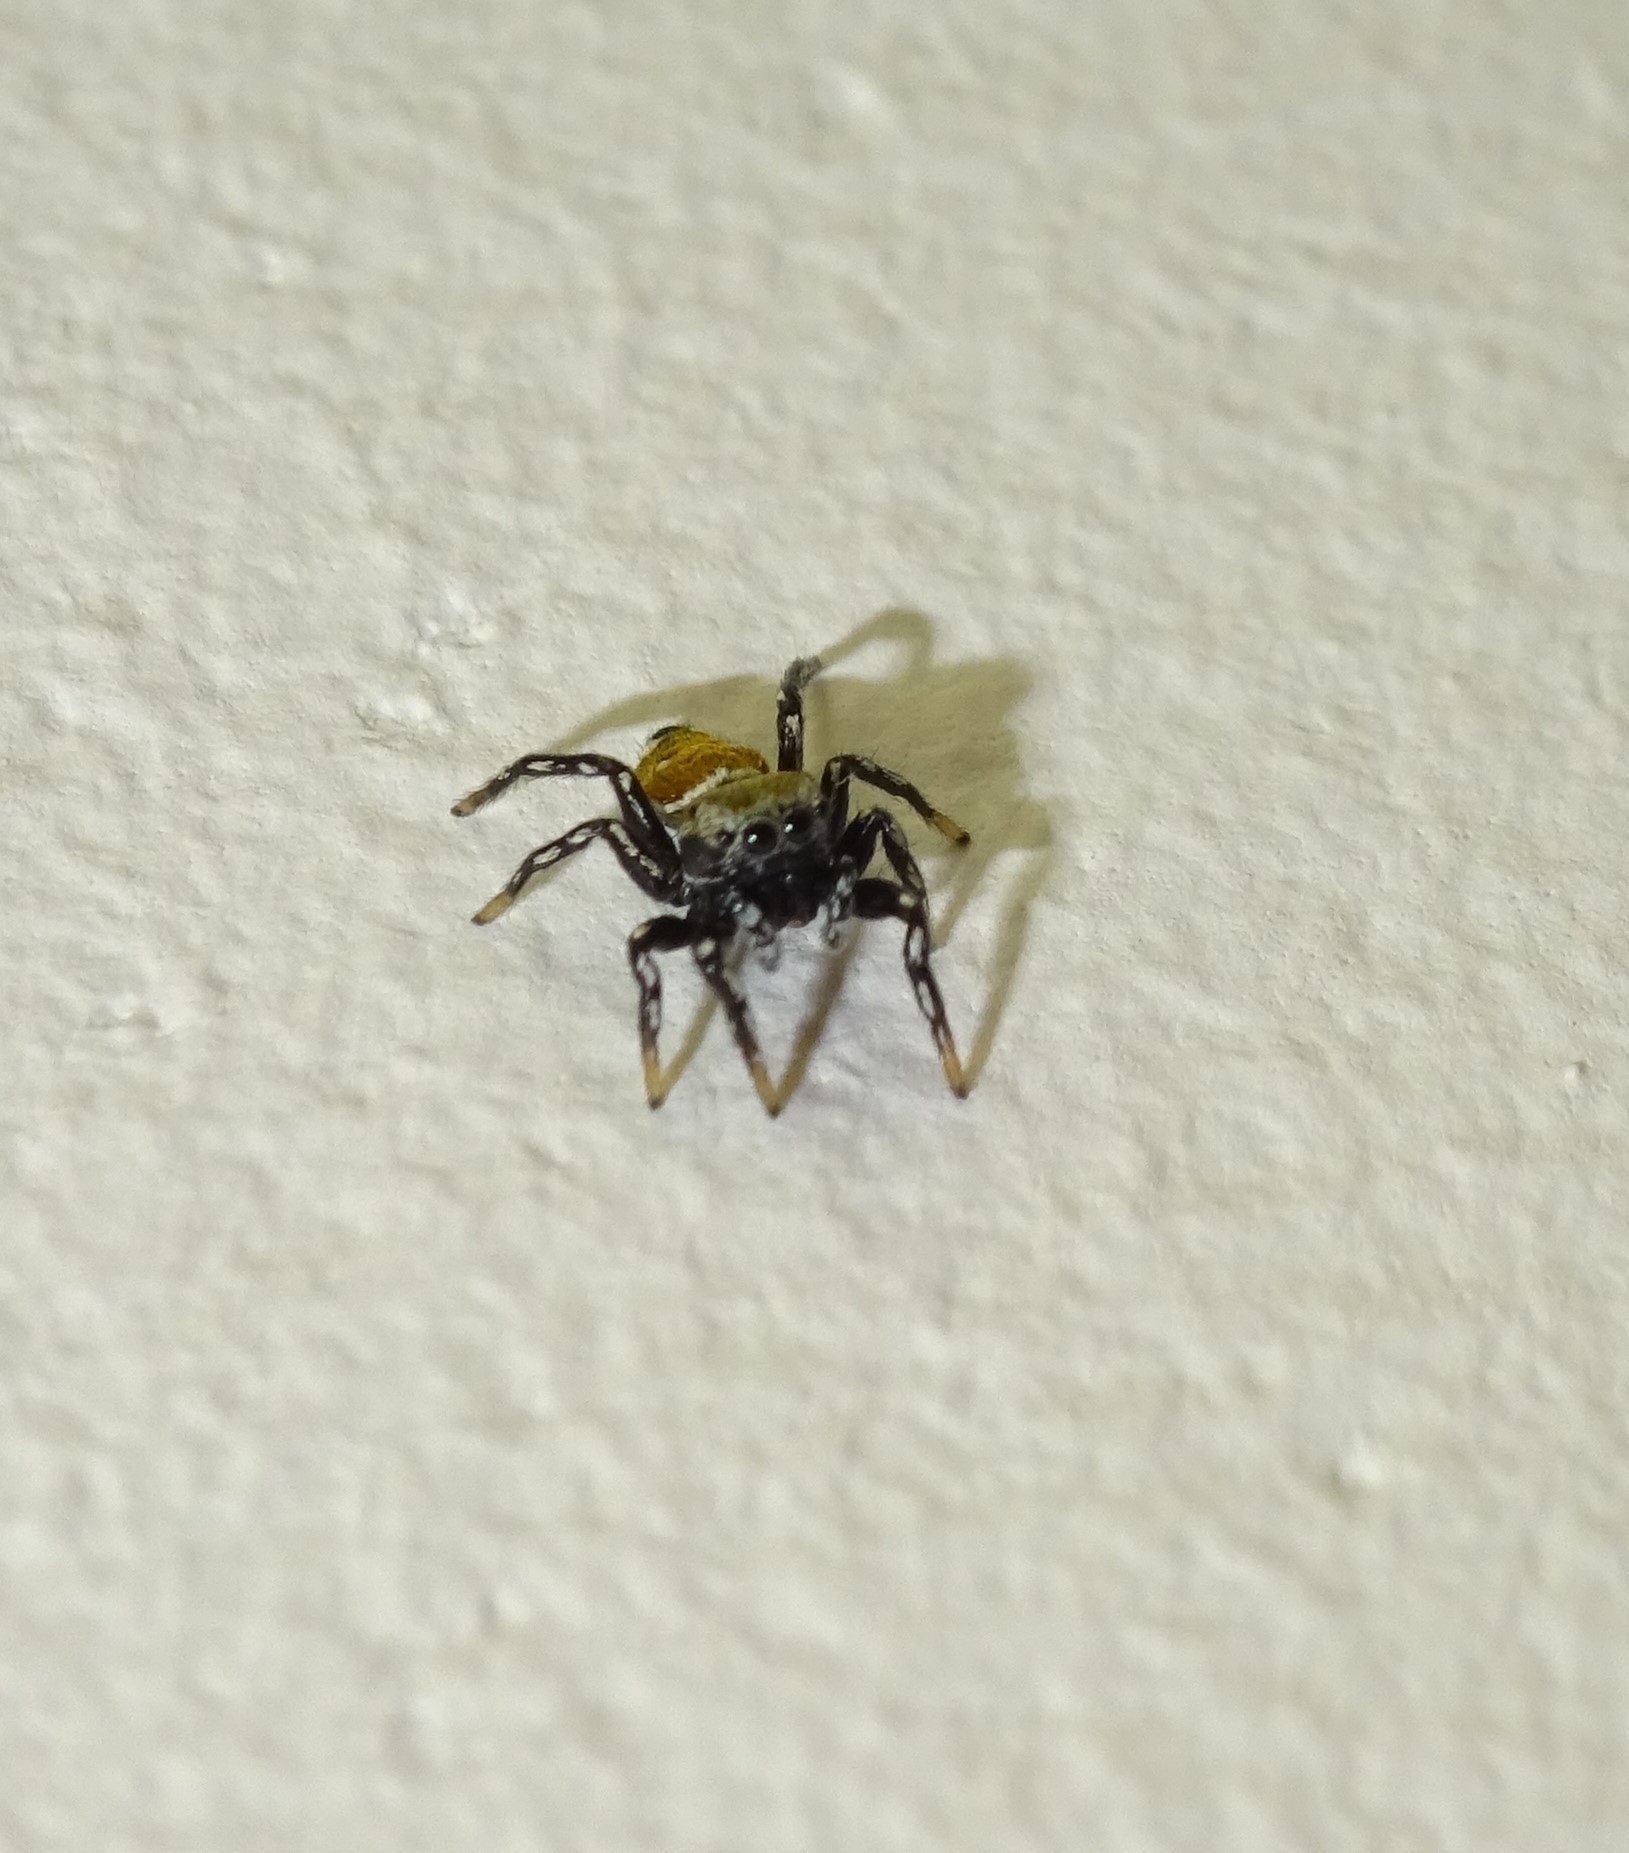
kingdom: Animalia
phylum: Arthropoda
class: Arachnida
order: Araneae
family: Salticidae
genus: Heliophanus
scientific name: Heliophanus kochii
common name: Sun jumping spider
